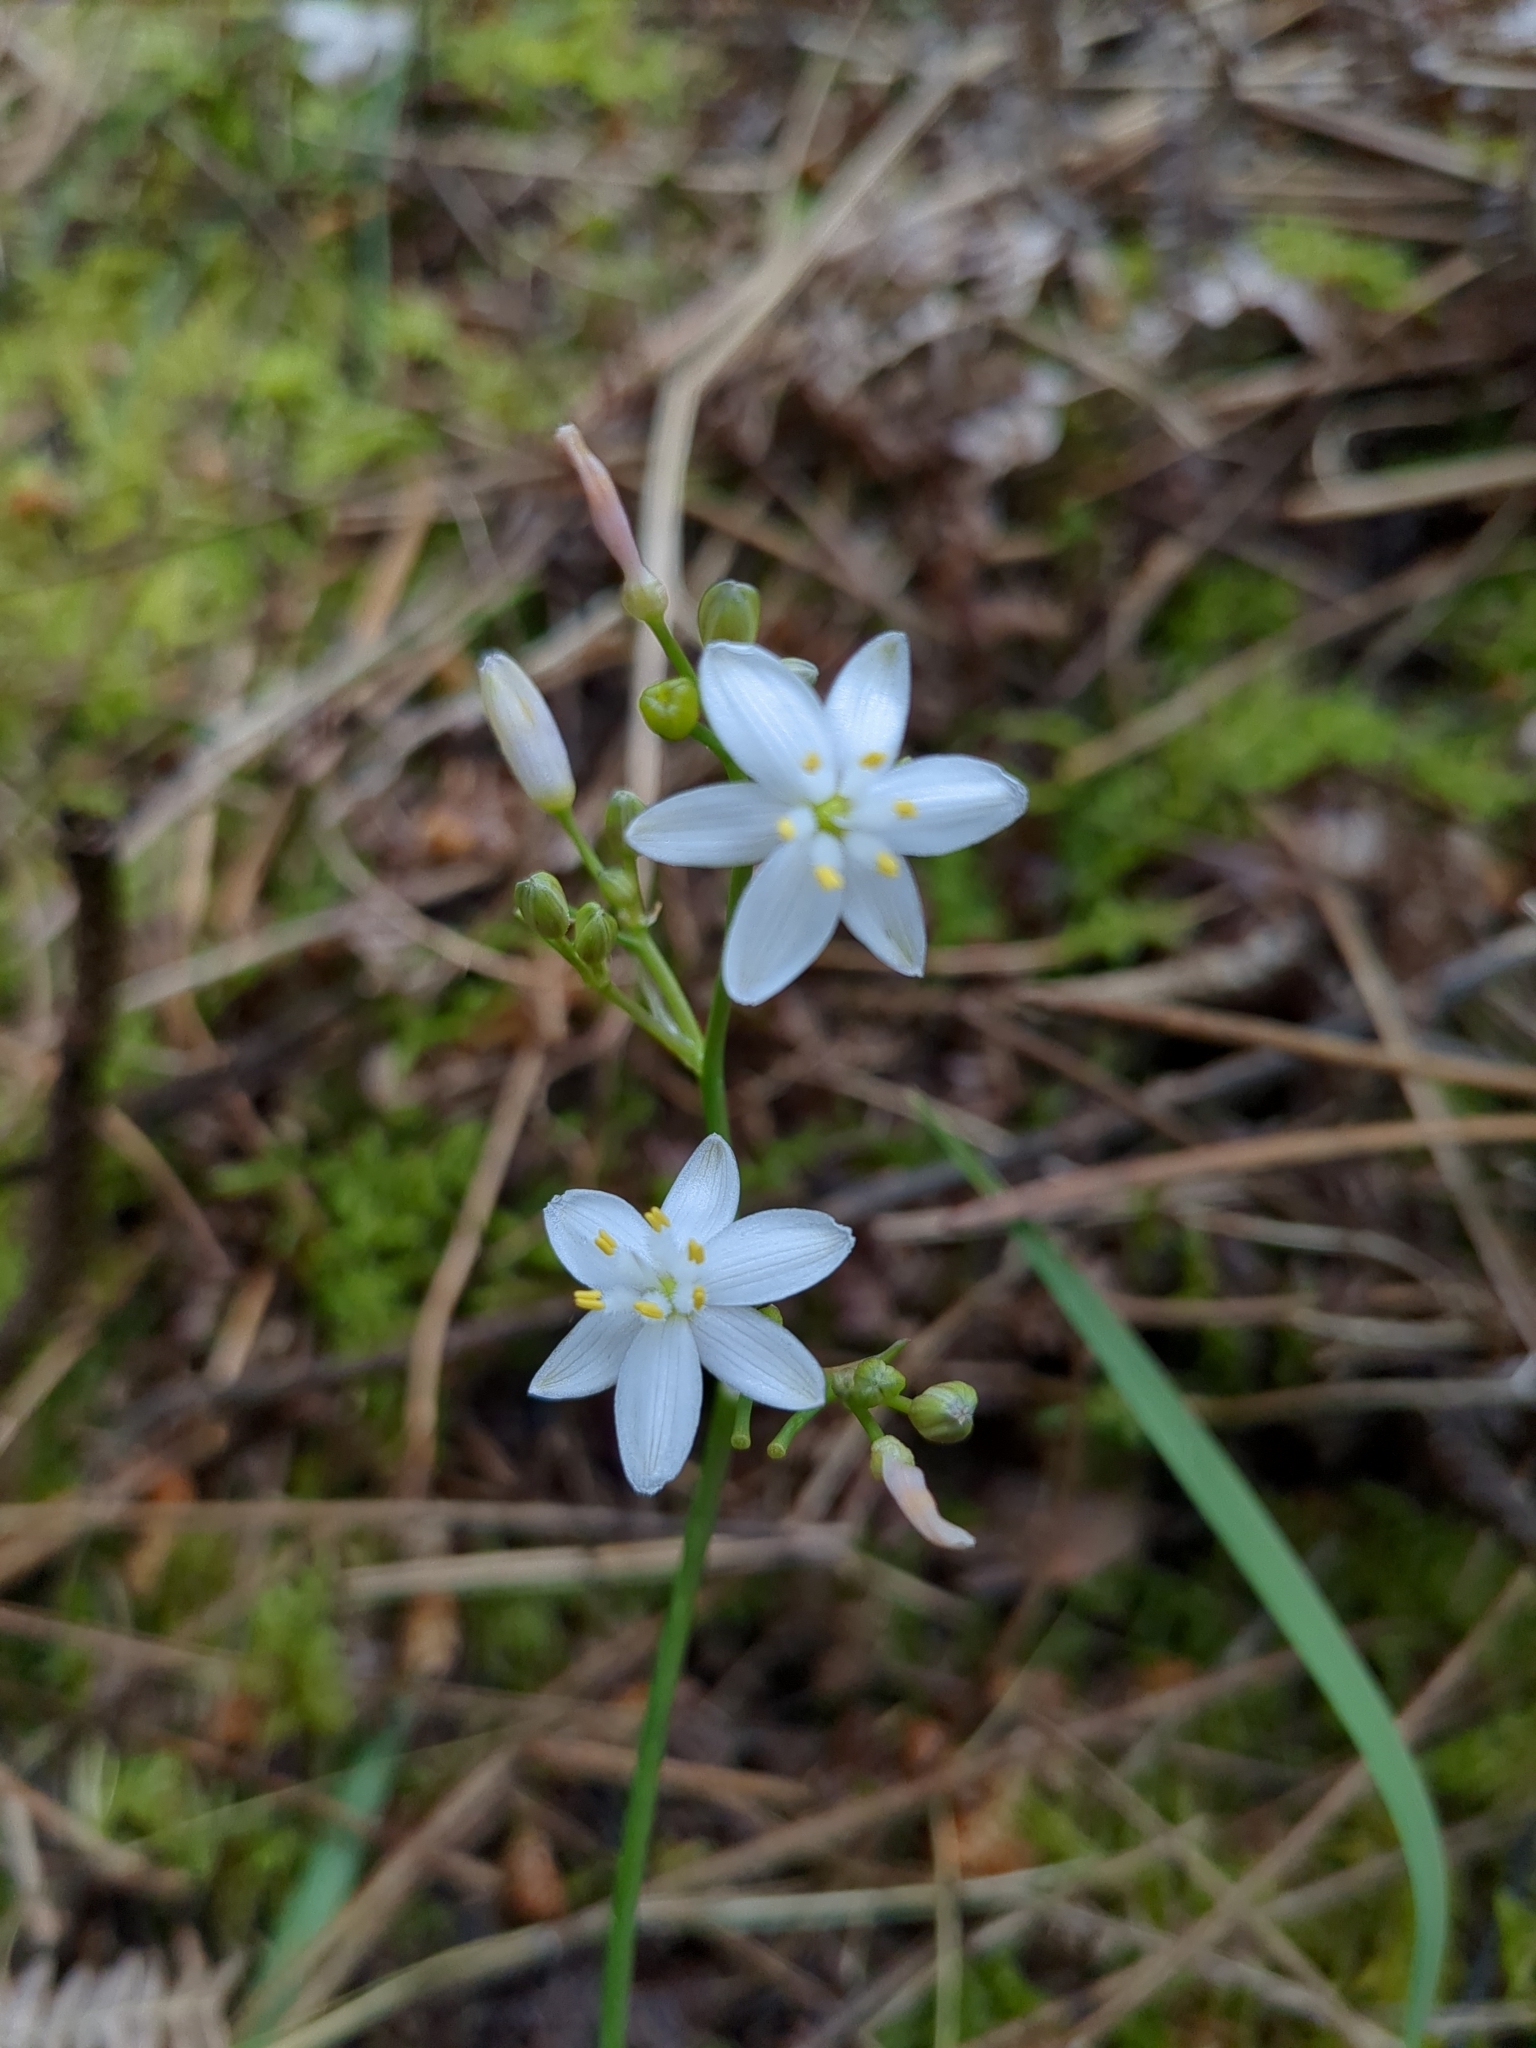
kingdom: Plantae
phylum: Tracheophyta
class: Liliopsida
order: Asparagales
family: Asphodelaceae
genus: Simethis
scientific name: Simethis mattiazzii
